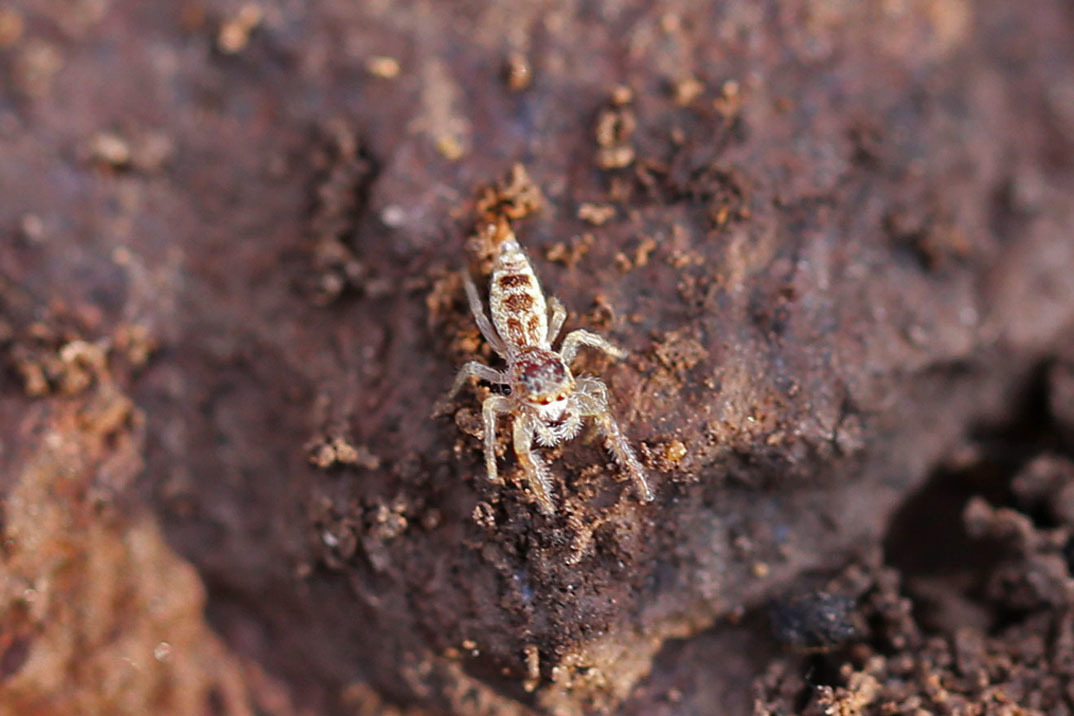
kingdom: Animalia
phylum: Arthropoda
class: Arachnida
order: Araneae
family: Salticidae
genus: Hentzia
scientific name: Hentzia
